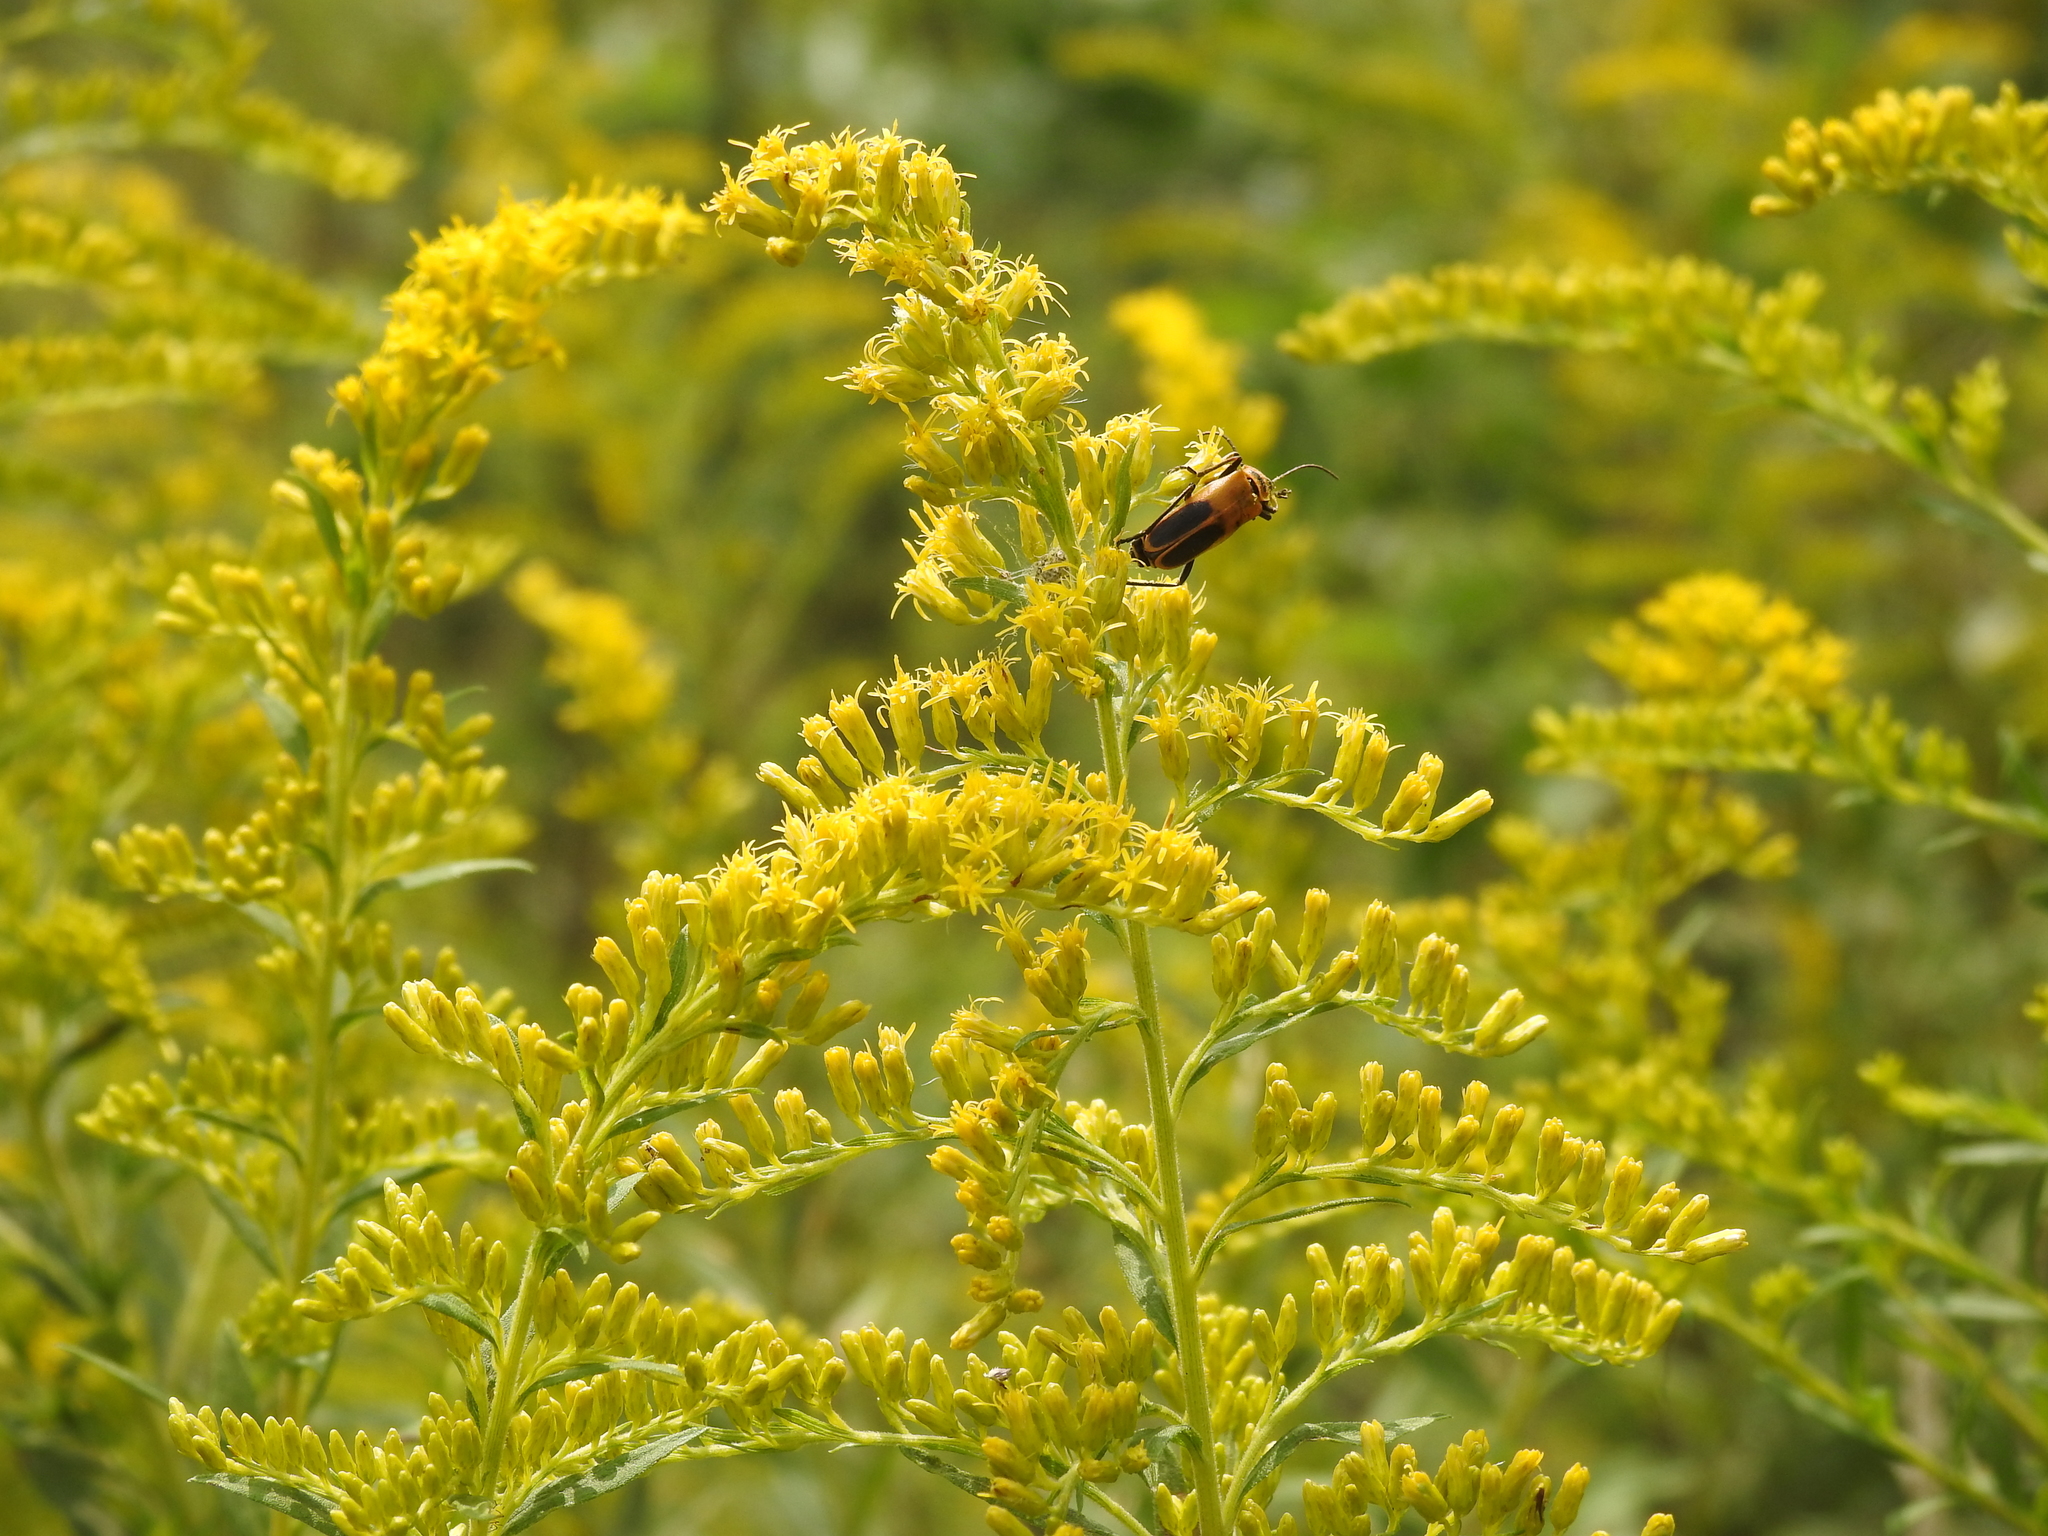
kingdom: Animalia
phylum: Arthropoda
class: Insecta
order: Coleoptera
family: Cantharidae
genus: Chauliognathus
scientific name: Chauliognathus pensylvanicus
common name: Goldenrod soldier beetle
